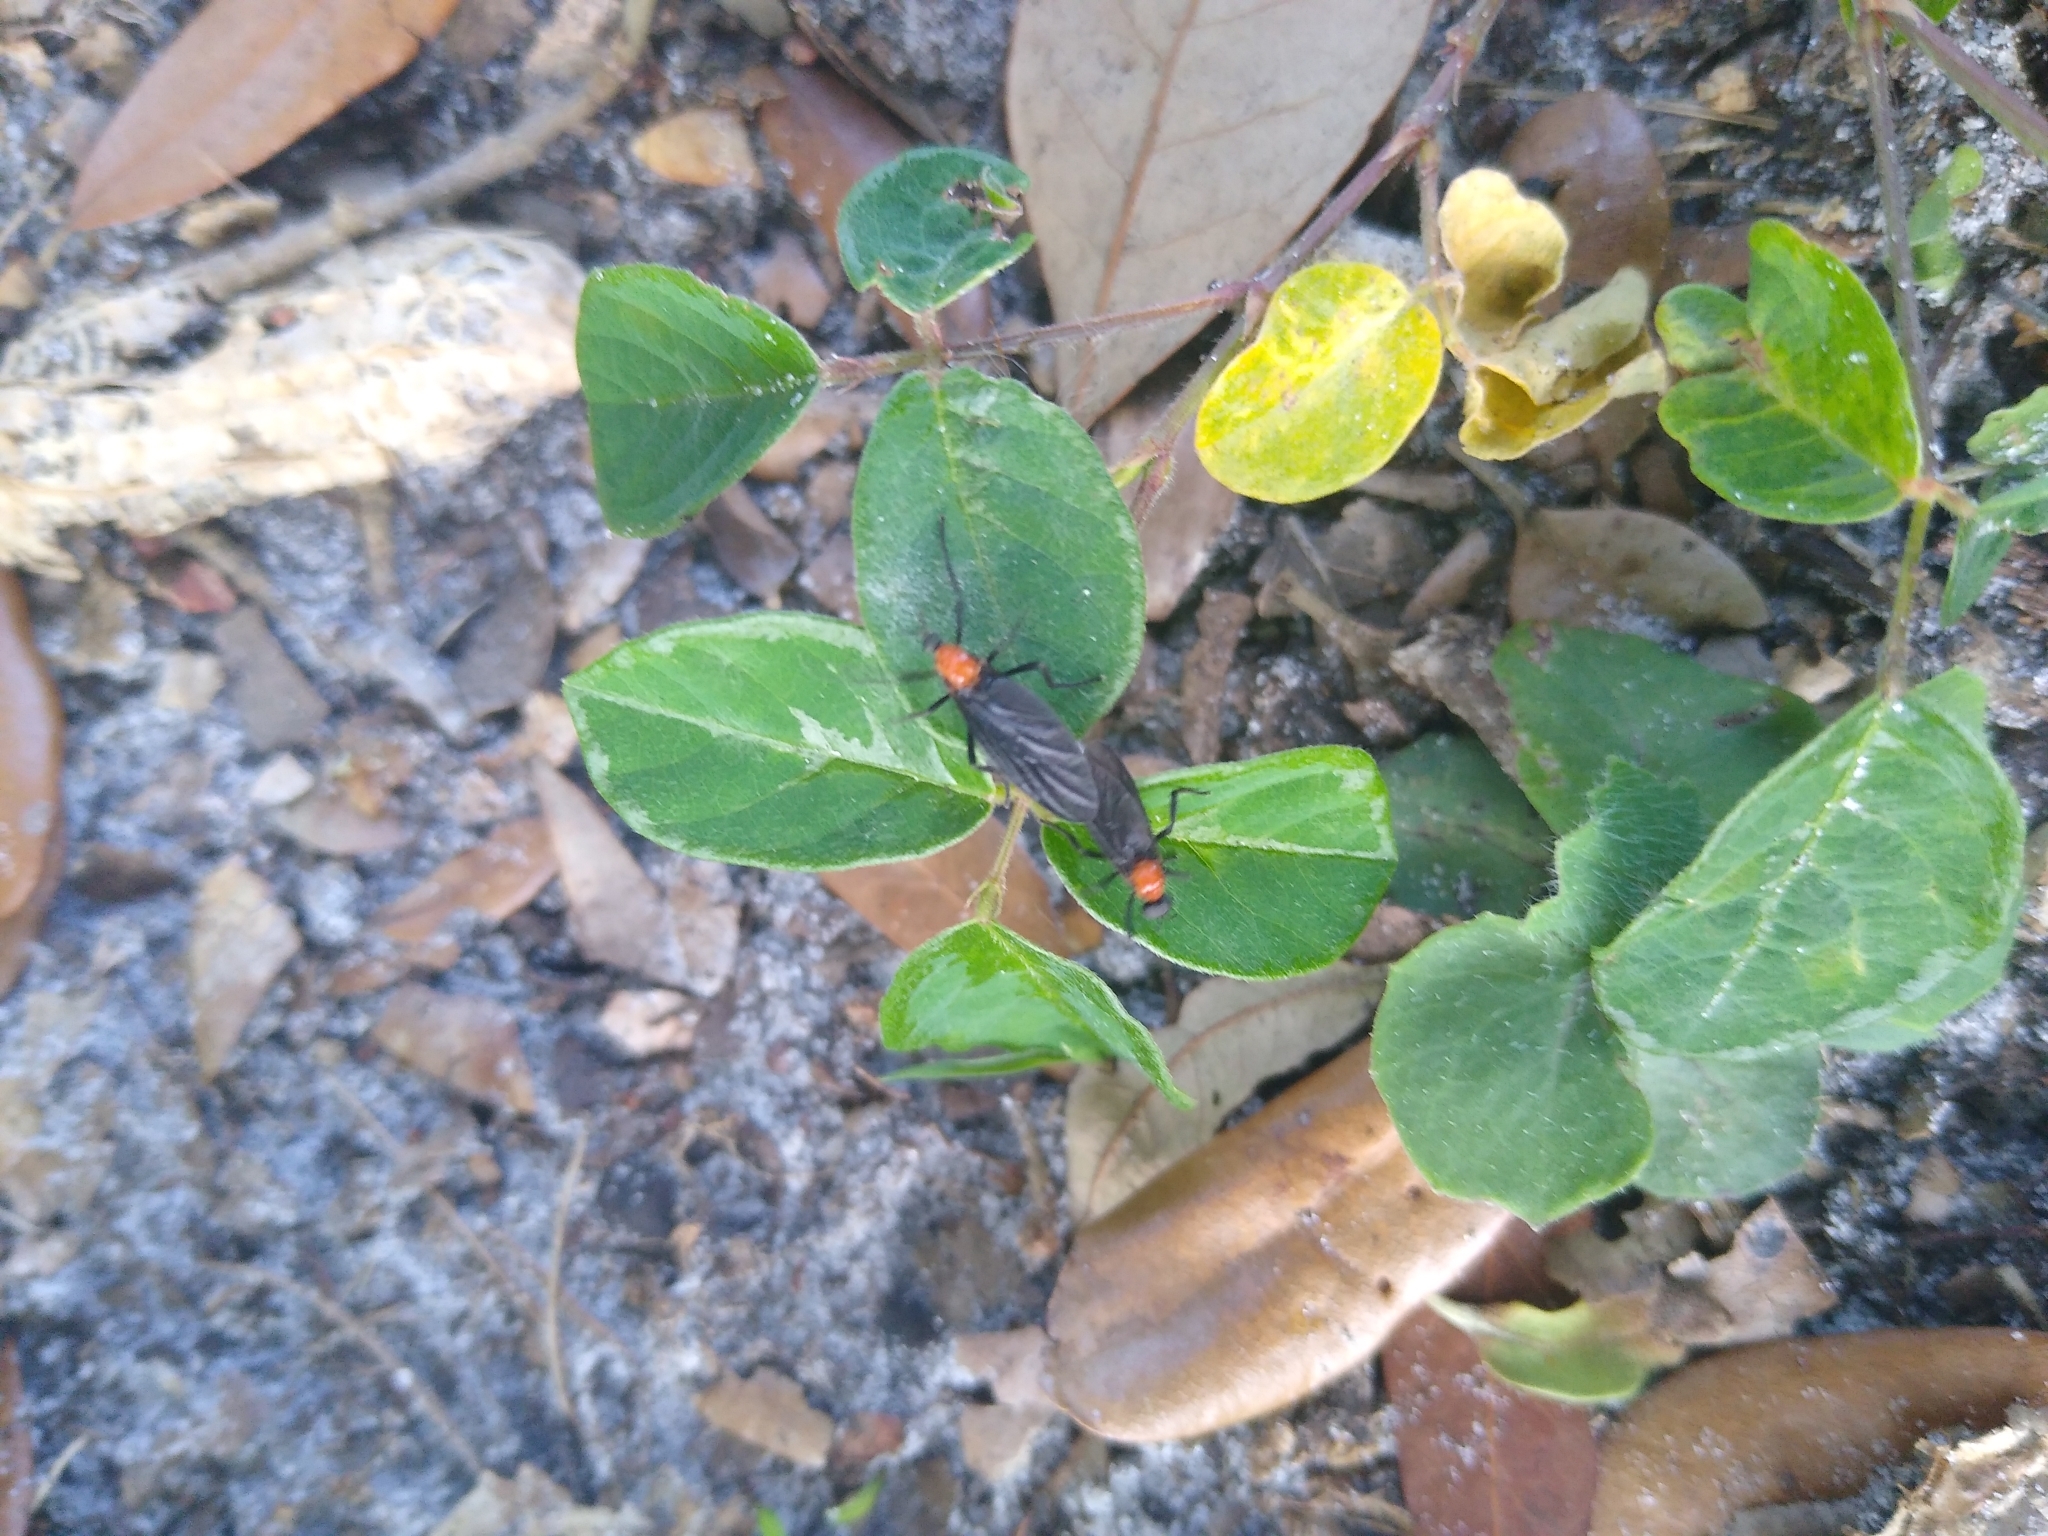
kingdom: Animalia
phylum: Arthropoda
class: Insecta
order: Diptera
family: Bibionidae
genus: Plecia
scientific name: Plecia nearctica
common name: March fly
